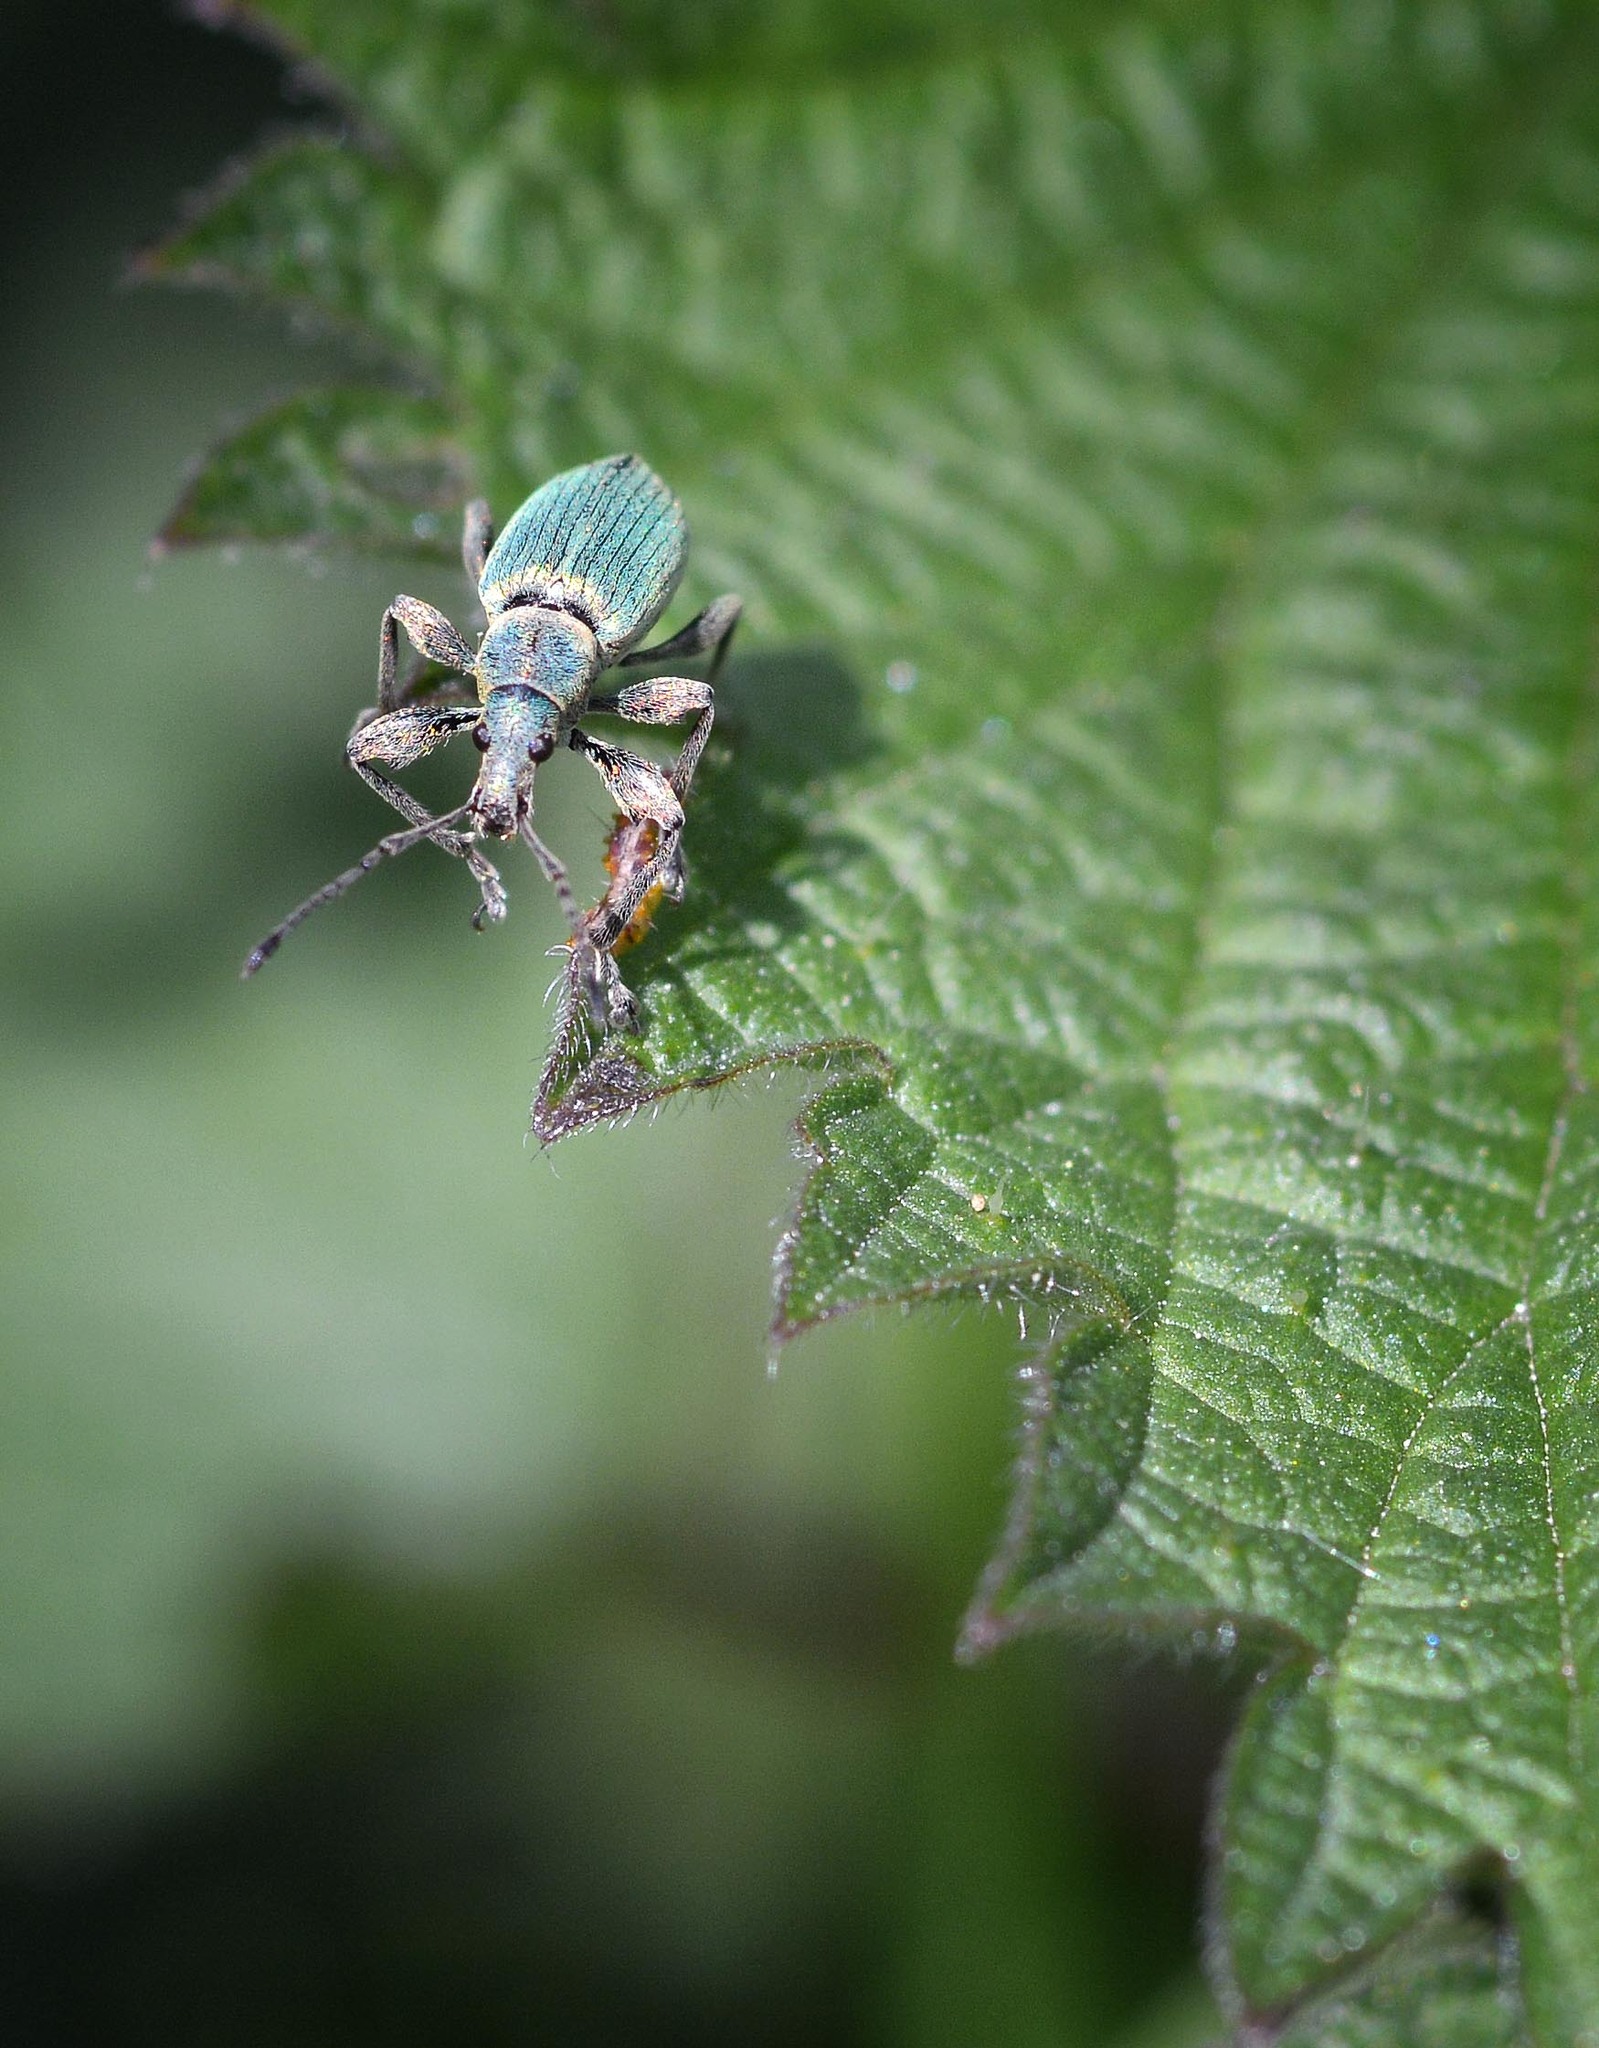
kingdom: Animalia
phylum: Arthropoda
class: Insecta
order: Coleoptera
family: Curculionidae
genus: Phyllobius
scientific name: Phyllobius pomaceus
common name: Green nettle weevil
